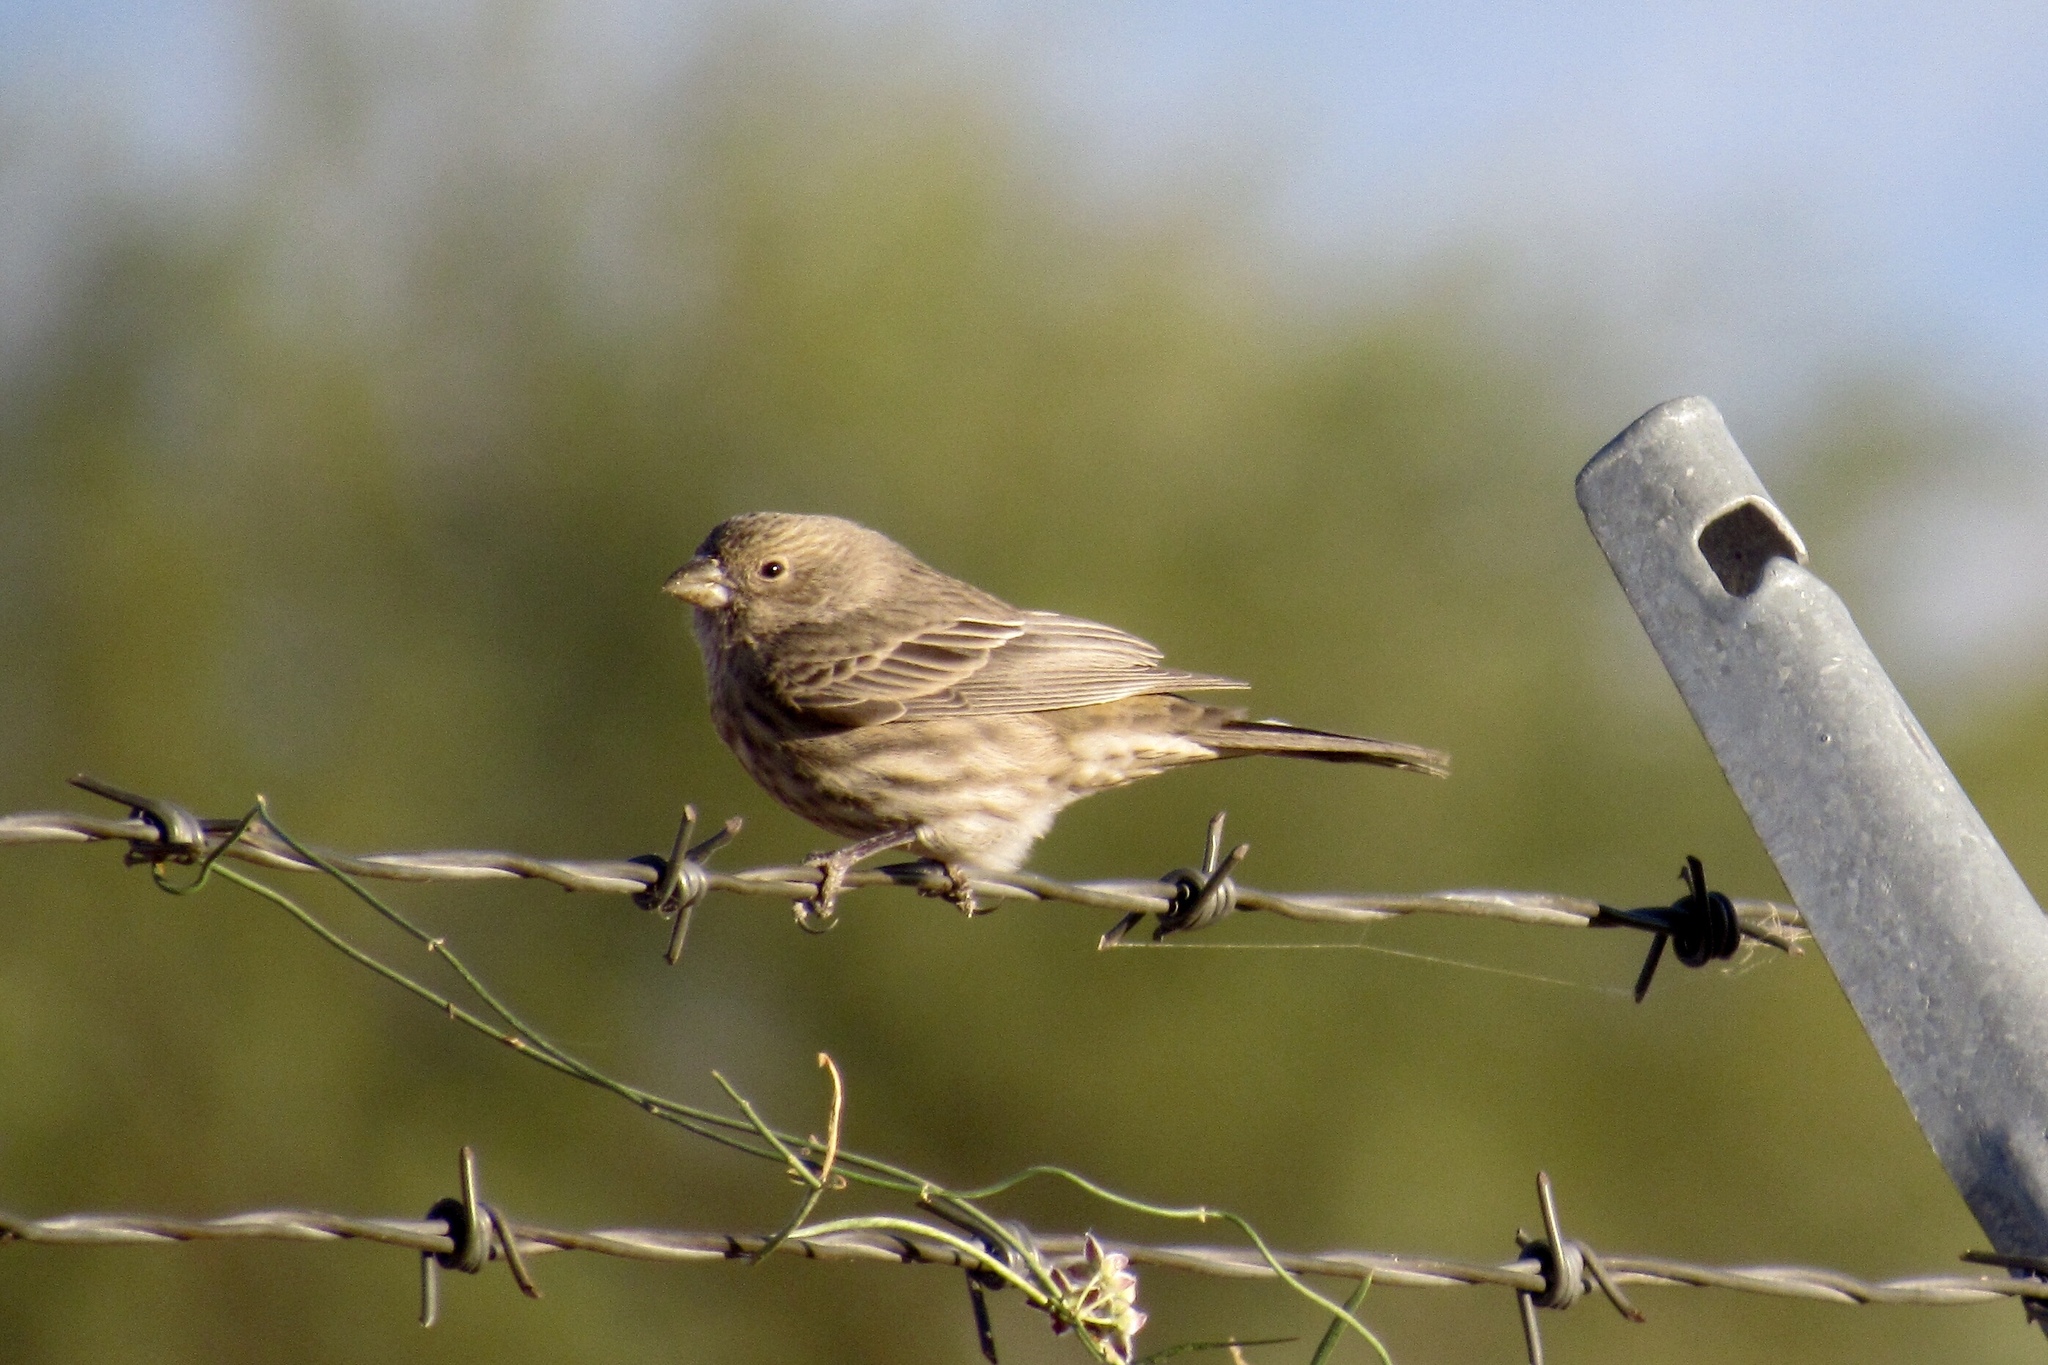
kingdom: Animalia
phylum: Chordata
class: Aves
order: Passeriformes
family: Fringillidae
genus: Haemorhous
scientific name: Haemorhous mexicanus
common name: House finch
